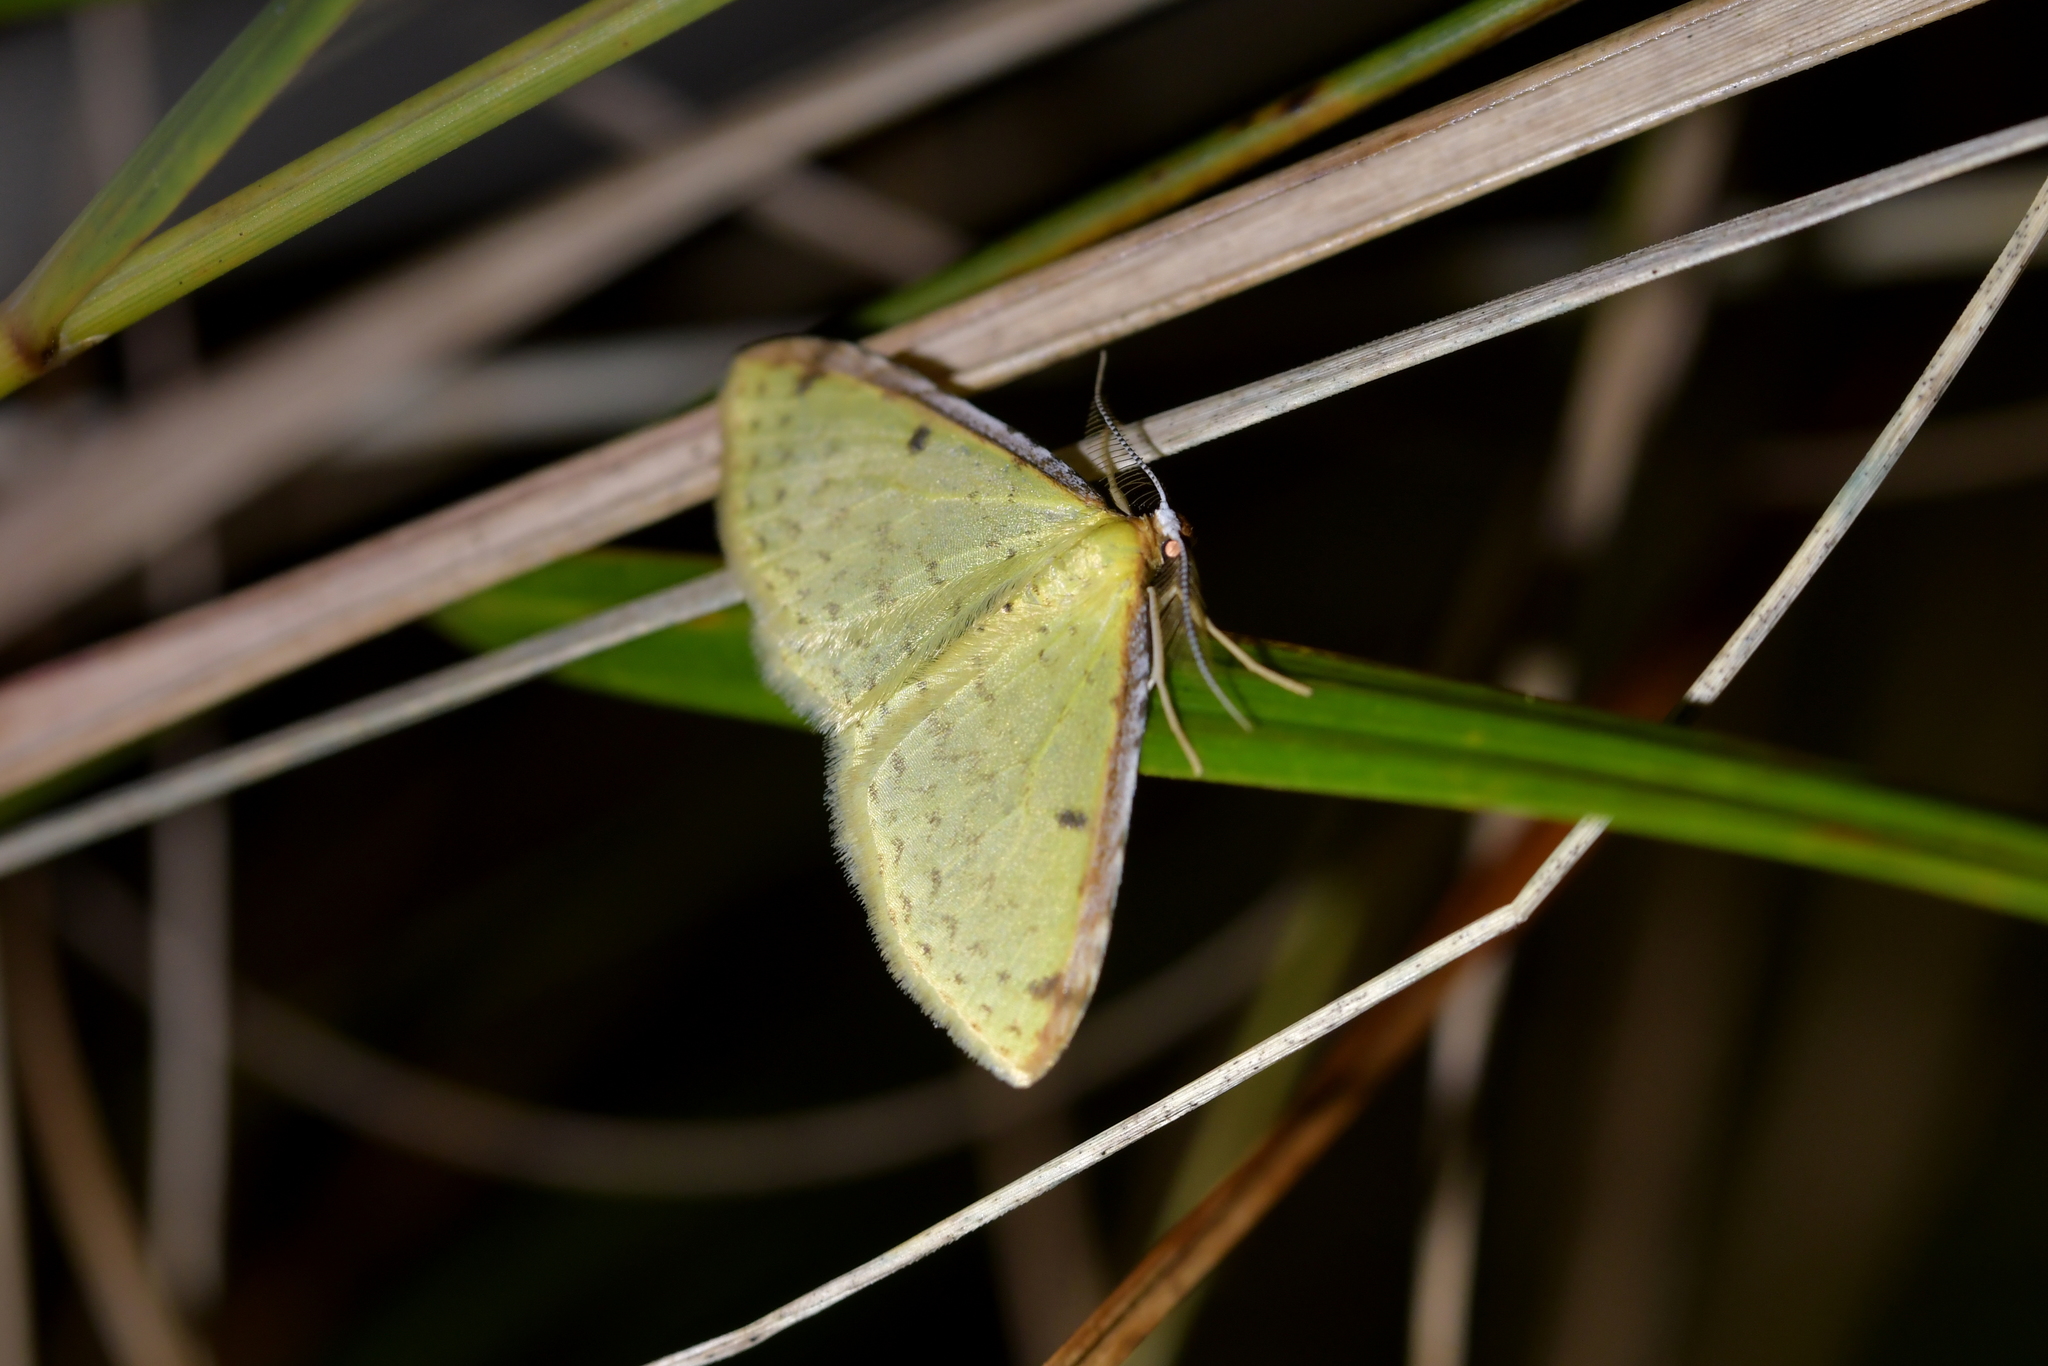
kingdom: Animalia
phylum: Arthropoda
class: Insecta
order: Lepidoptera
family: Geometridae
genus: Epiphryne
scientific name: Epiphryne undosata
